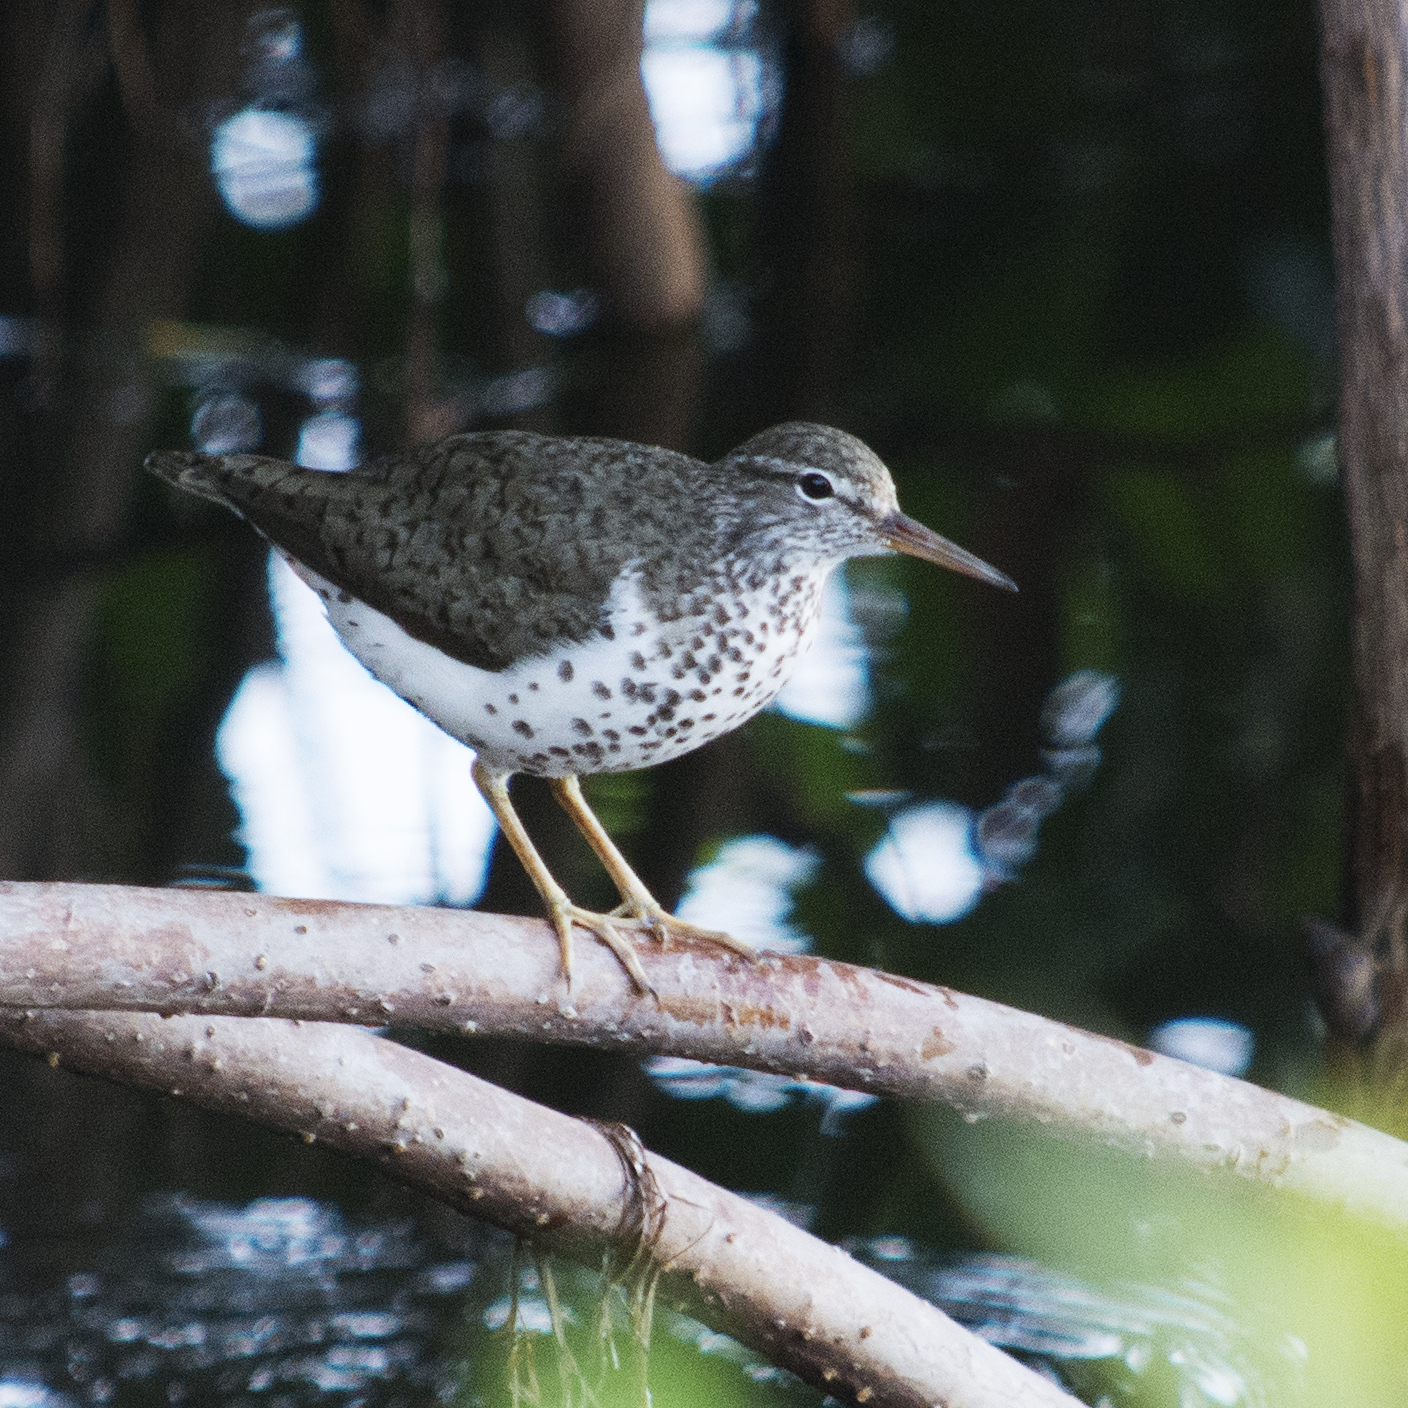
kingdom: Animalia
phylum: Chordata
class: Aves
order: Charadriiformes
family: Scolopacidae
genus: Actitis
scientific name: Actitis macularius
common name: Spotted sandpiper
